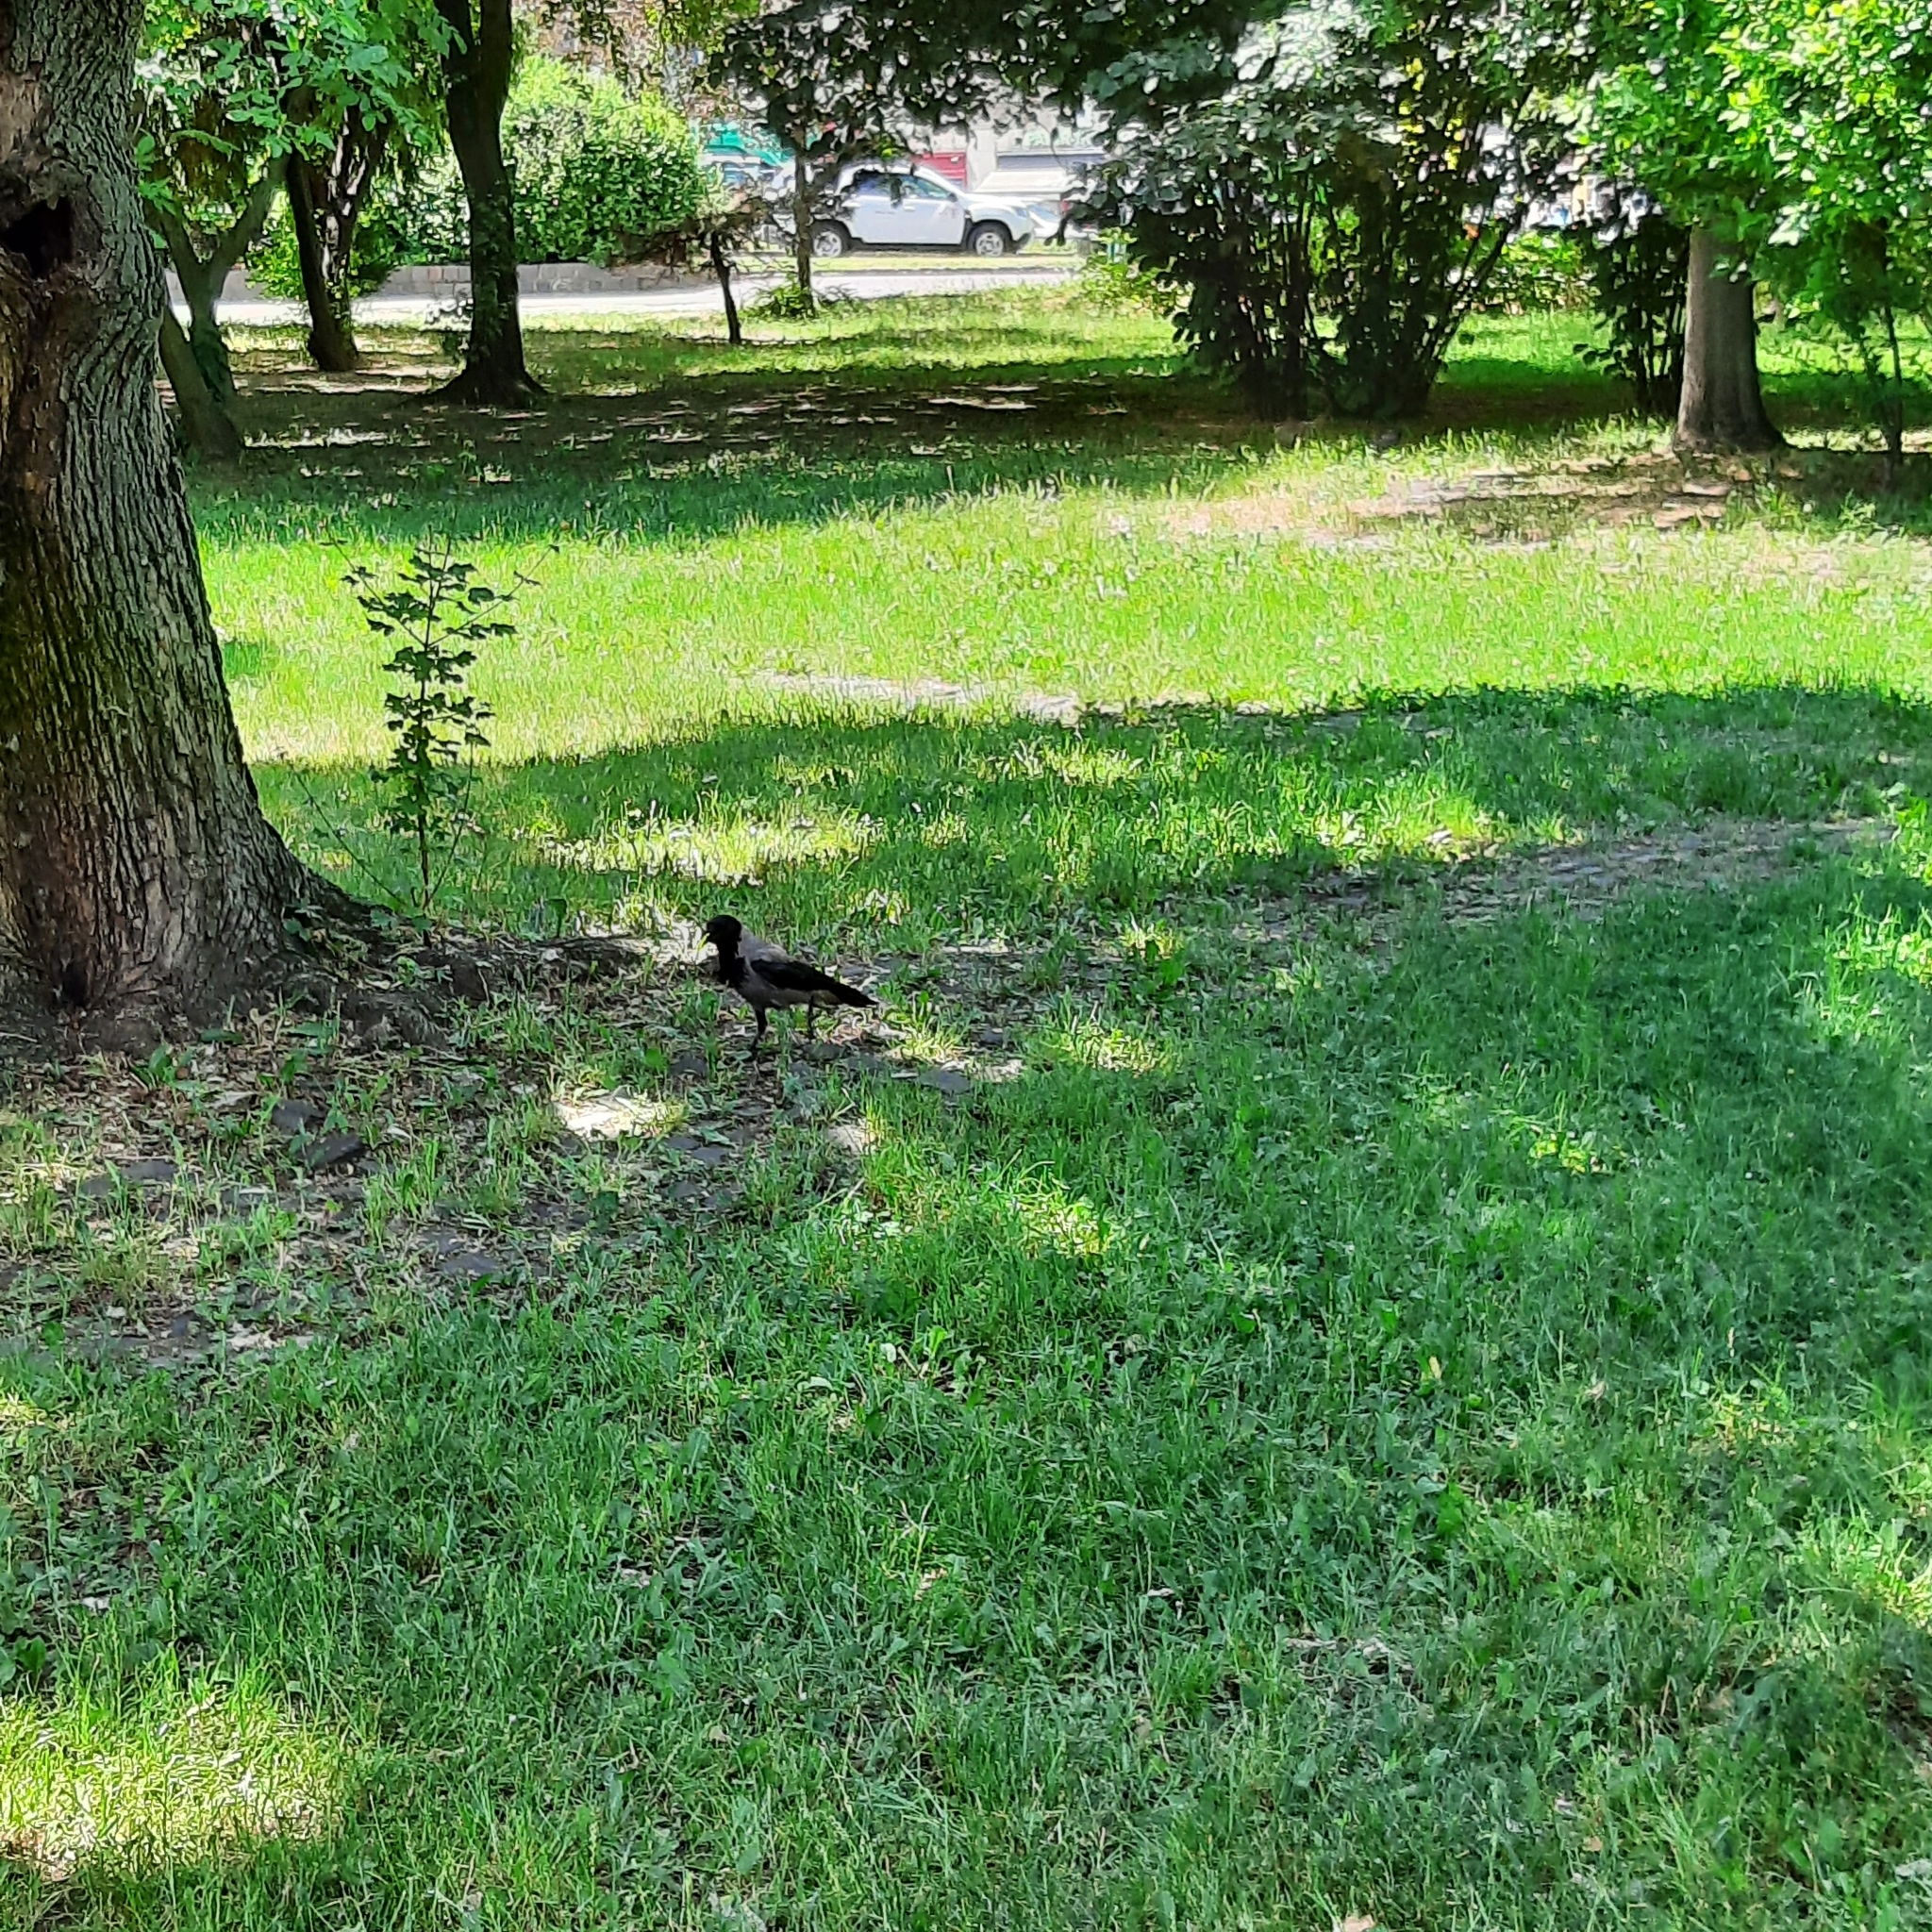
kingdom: Animalia
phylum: Chordata
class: Aves
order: Passeriformes
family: Corvidae
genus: Corvus
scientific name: Corvus cornix
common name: Hooded crow
